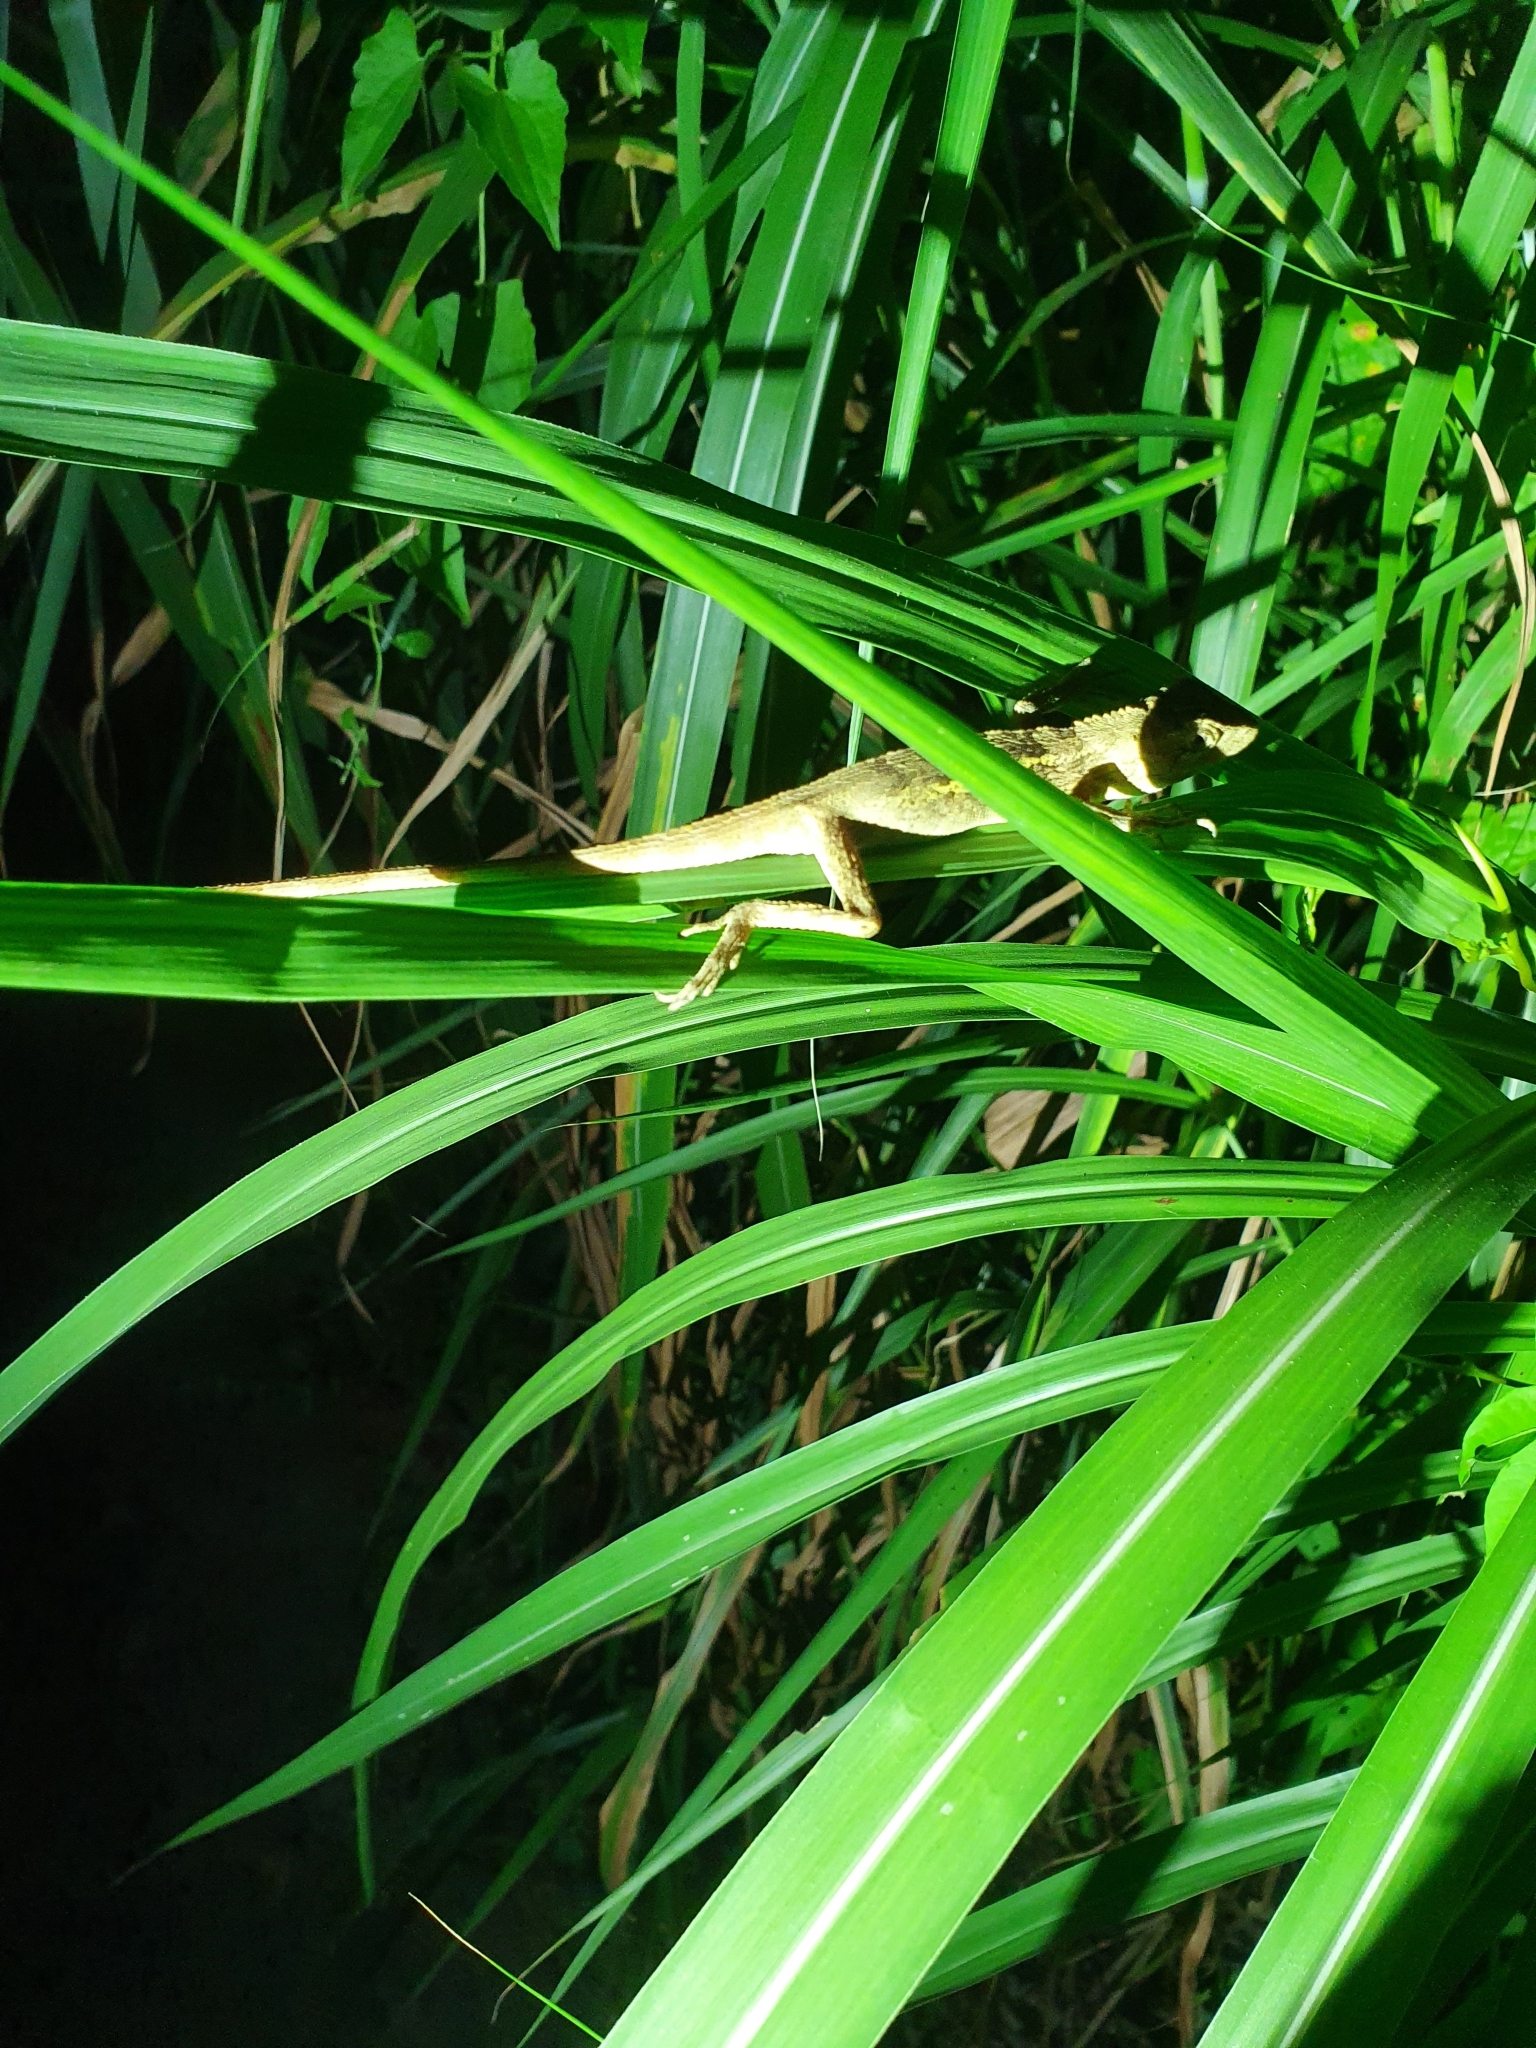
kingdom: Animalia
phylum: Chordata
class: Squamata
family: Agamidae
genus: Diploderma
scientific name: Diploderma swinhonis
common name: Taiwan japalure
